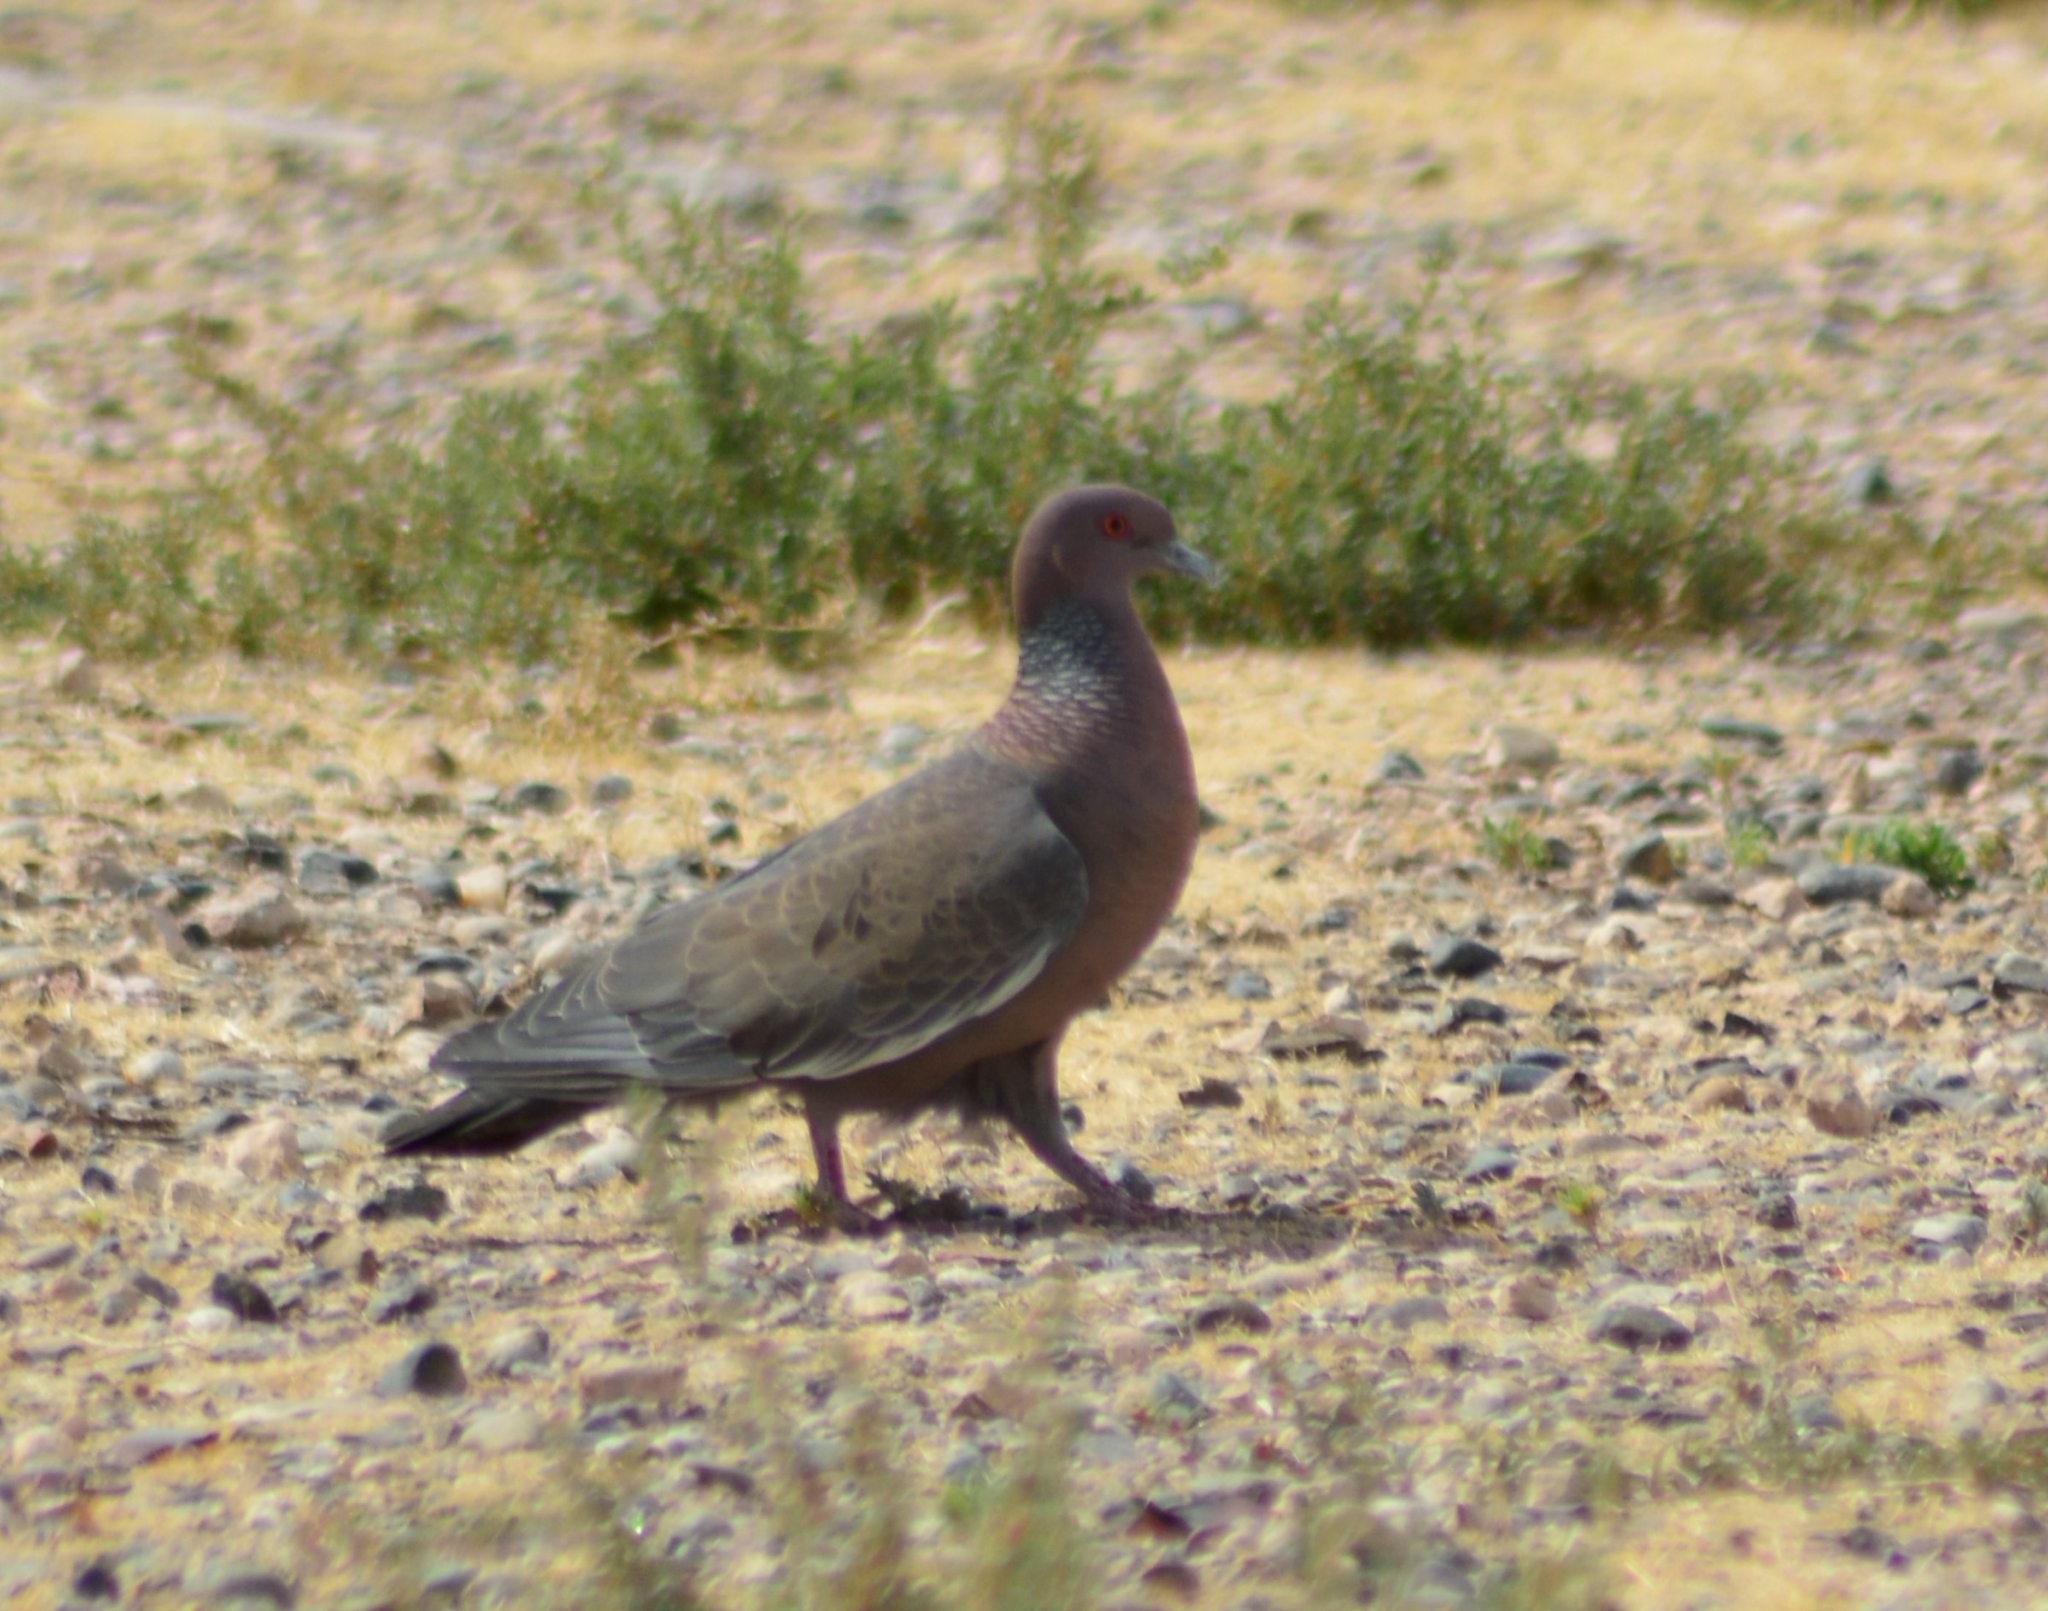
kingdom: Animalia
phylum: Chordata
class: Aves
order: Columbiformes
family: Columbidae
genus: Patagioenas
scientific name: Patagioenas picazuro
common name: Picazuro pigeon
